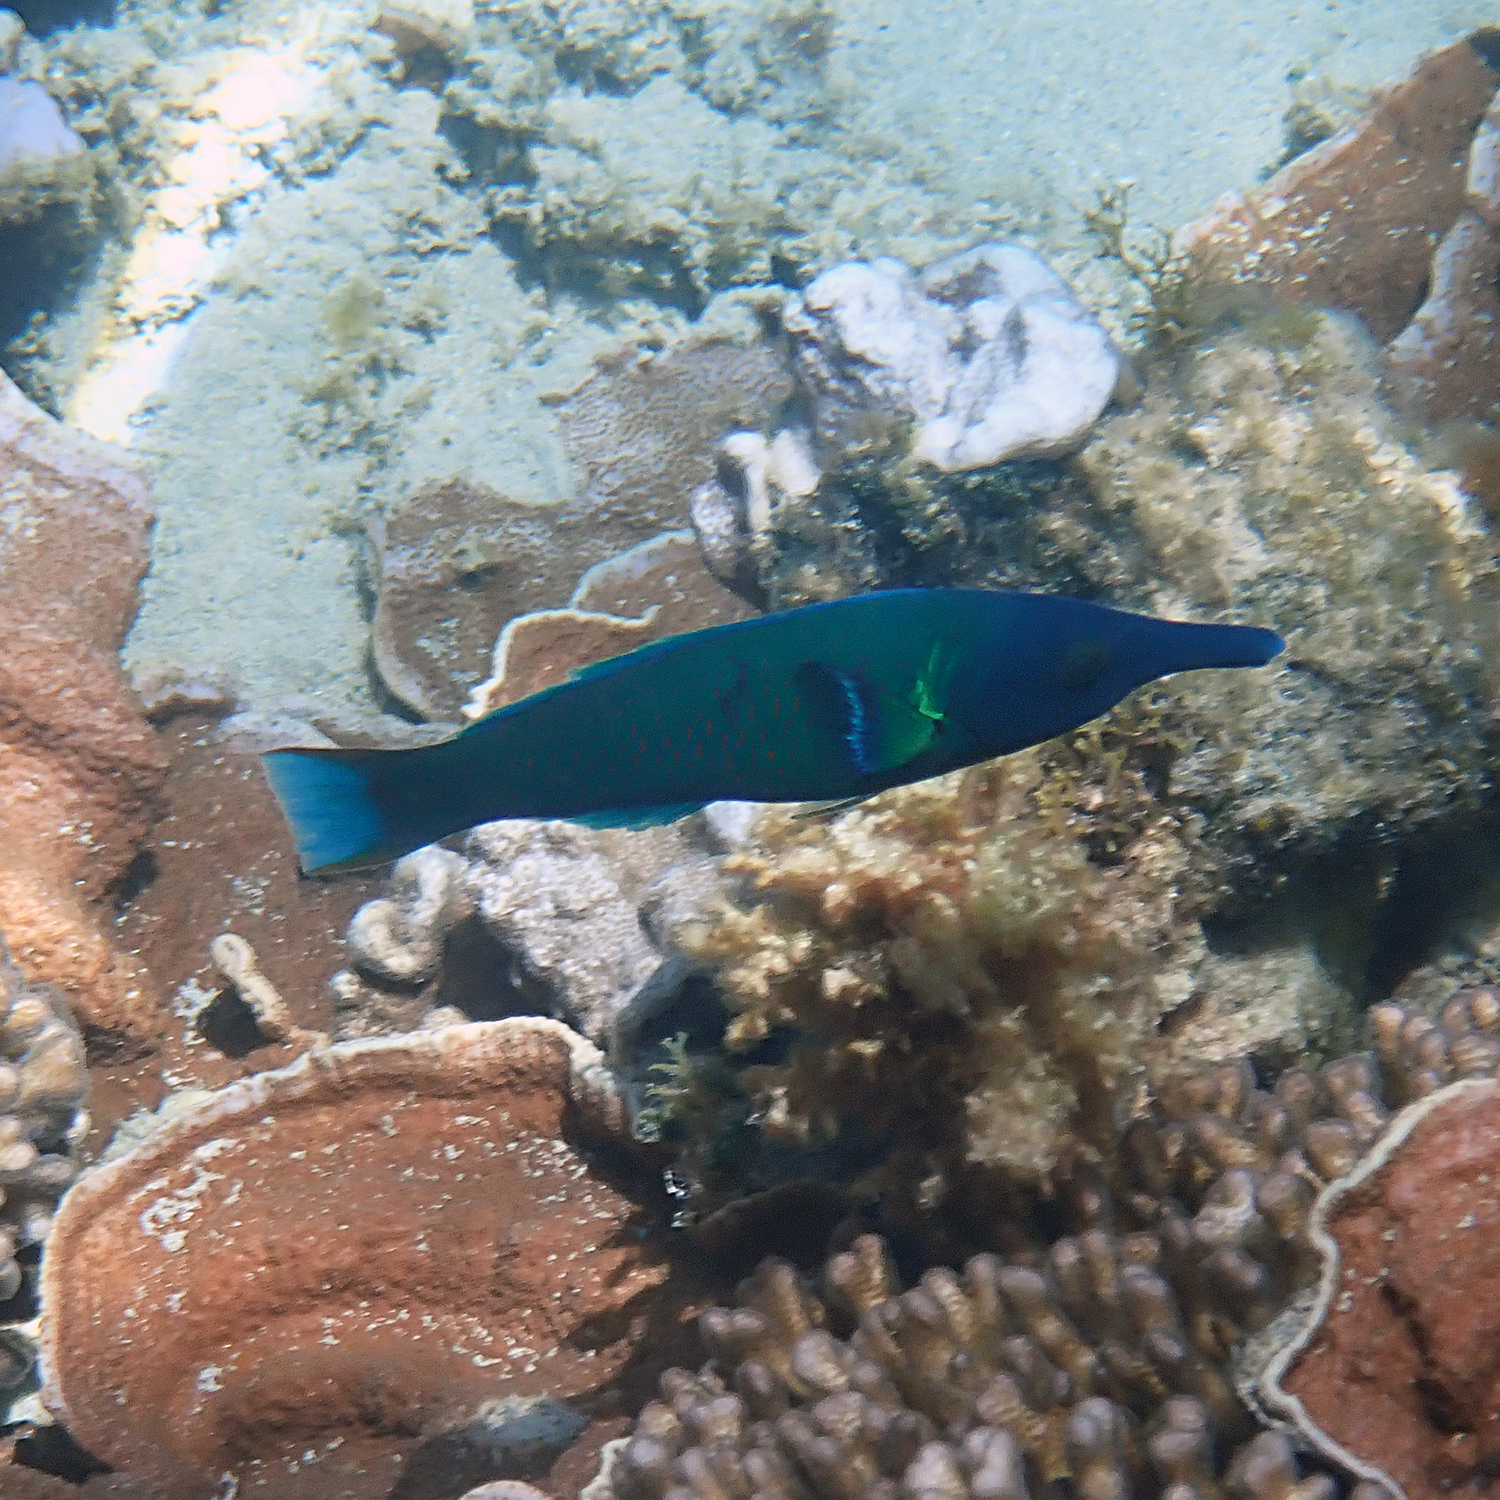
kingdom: Animalia
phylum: Chordata
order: Perciformes
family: Labridae
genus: Gomphosus
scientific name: Gomphosus varius
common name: Bird wrasse
